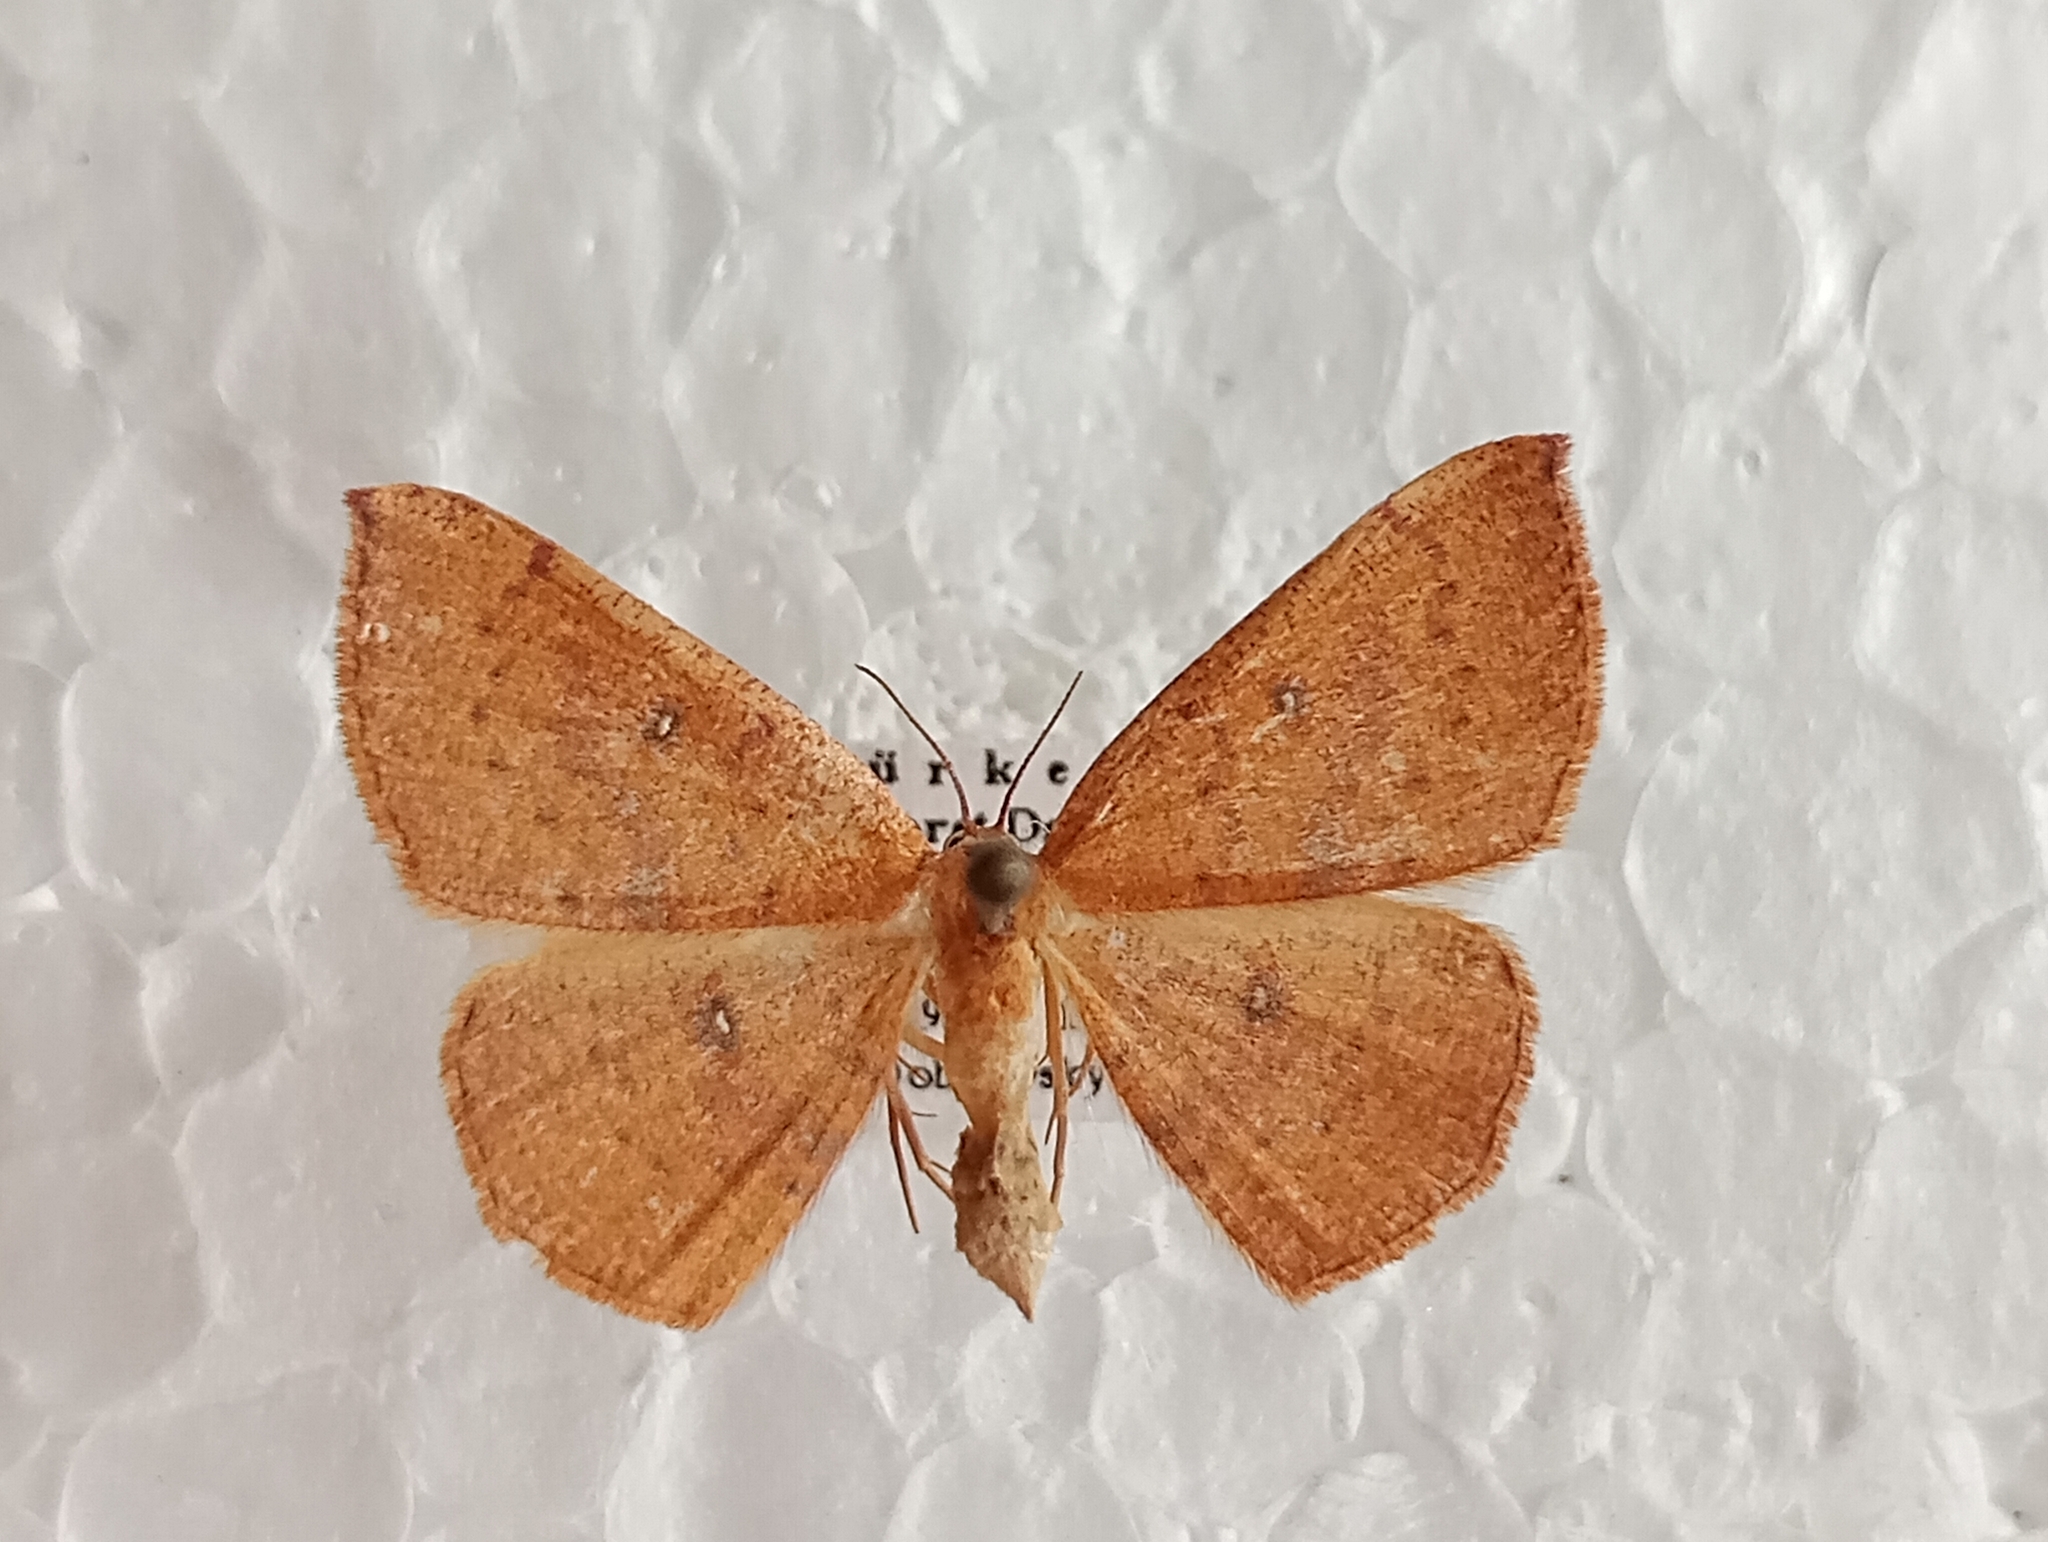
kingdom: Animalia
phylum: Arthropoda
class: Insecta
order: Lepidoptera
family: Geometridae
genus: Cyclophora
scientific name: Cyclophora puppillaria
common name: Blair's mocha
